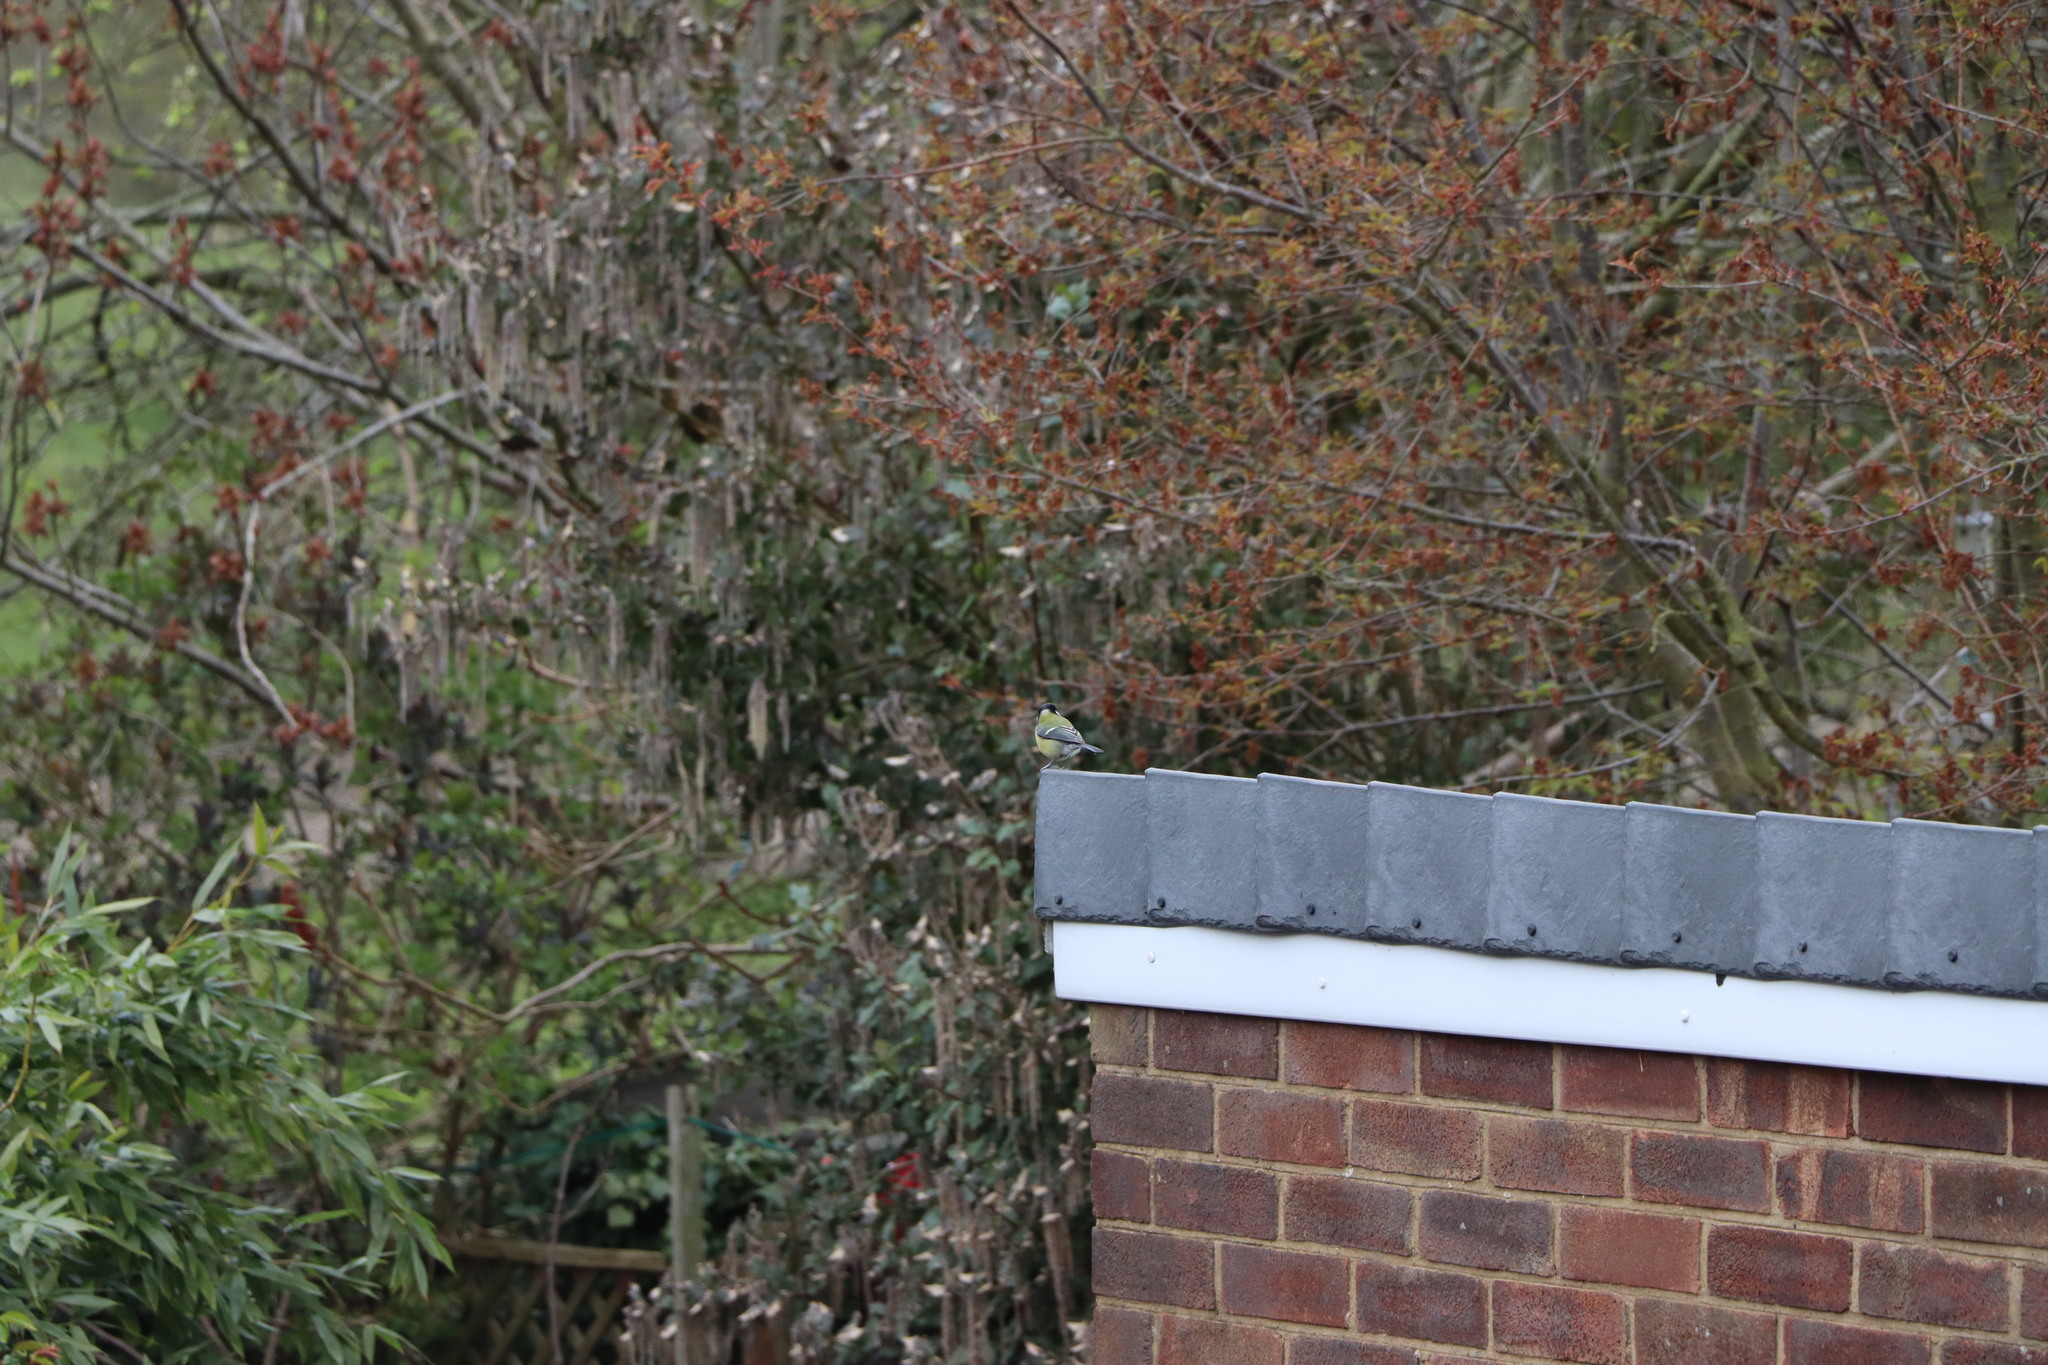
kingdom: Animalia
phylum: Chordata
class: Aves
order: Passeriformes
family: Paridae
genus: Parus
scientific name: Parus major
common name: Great tit
